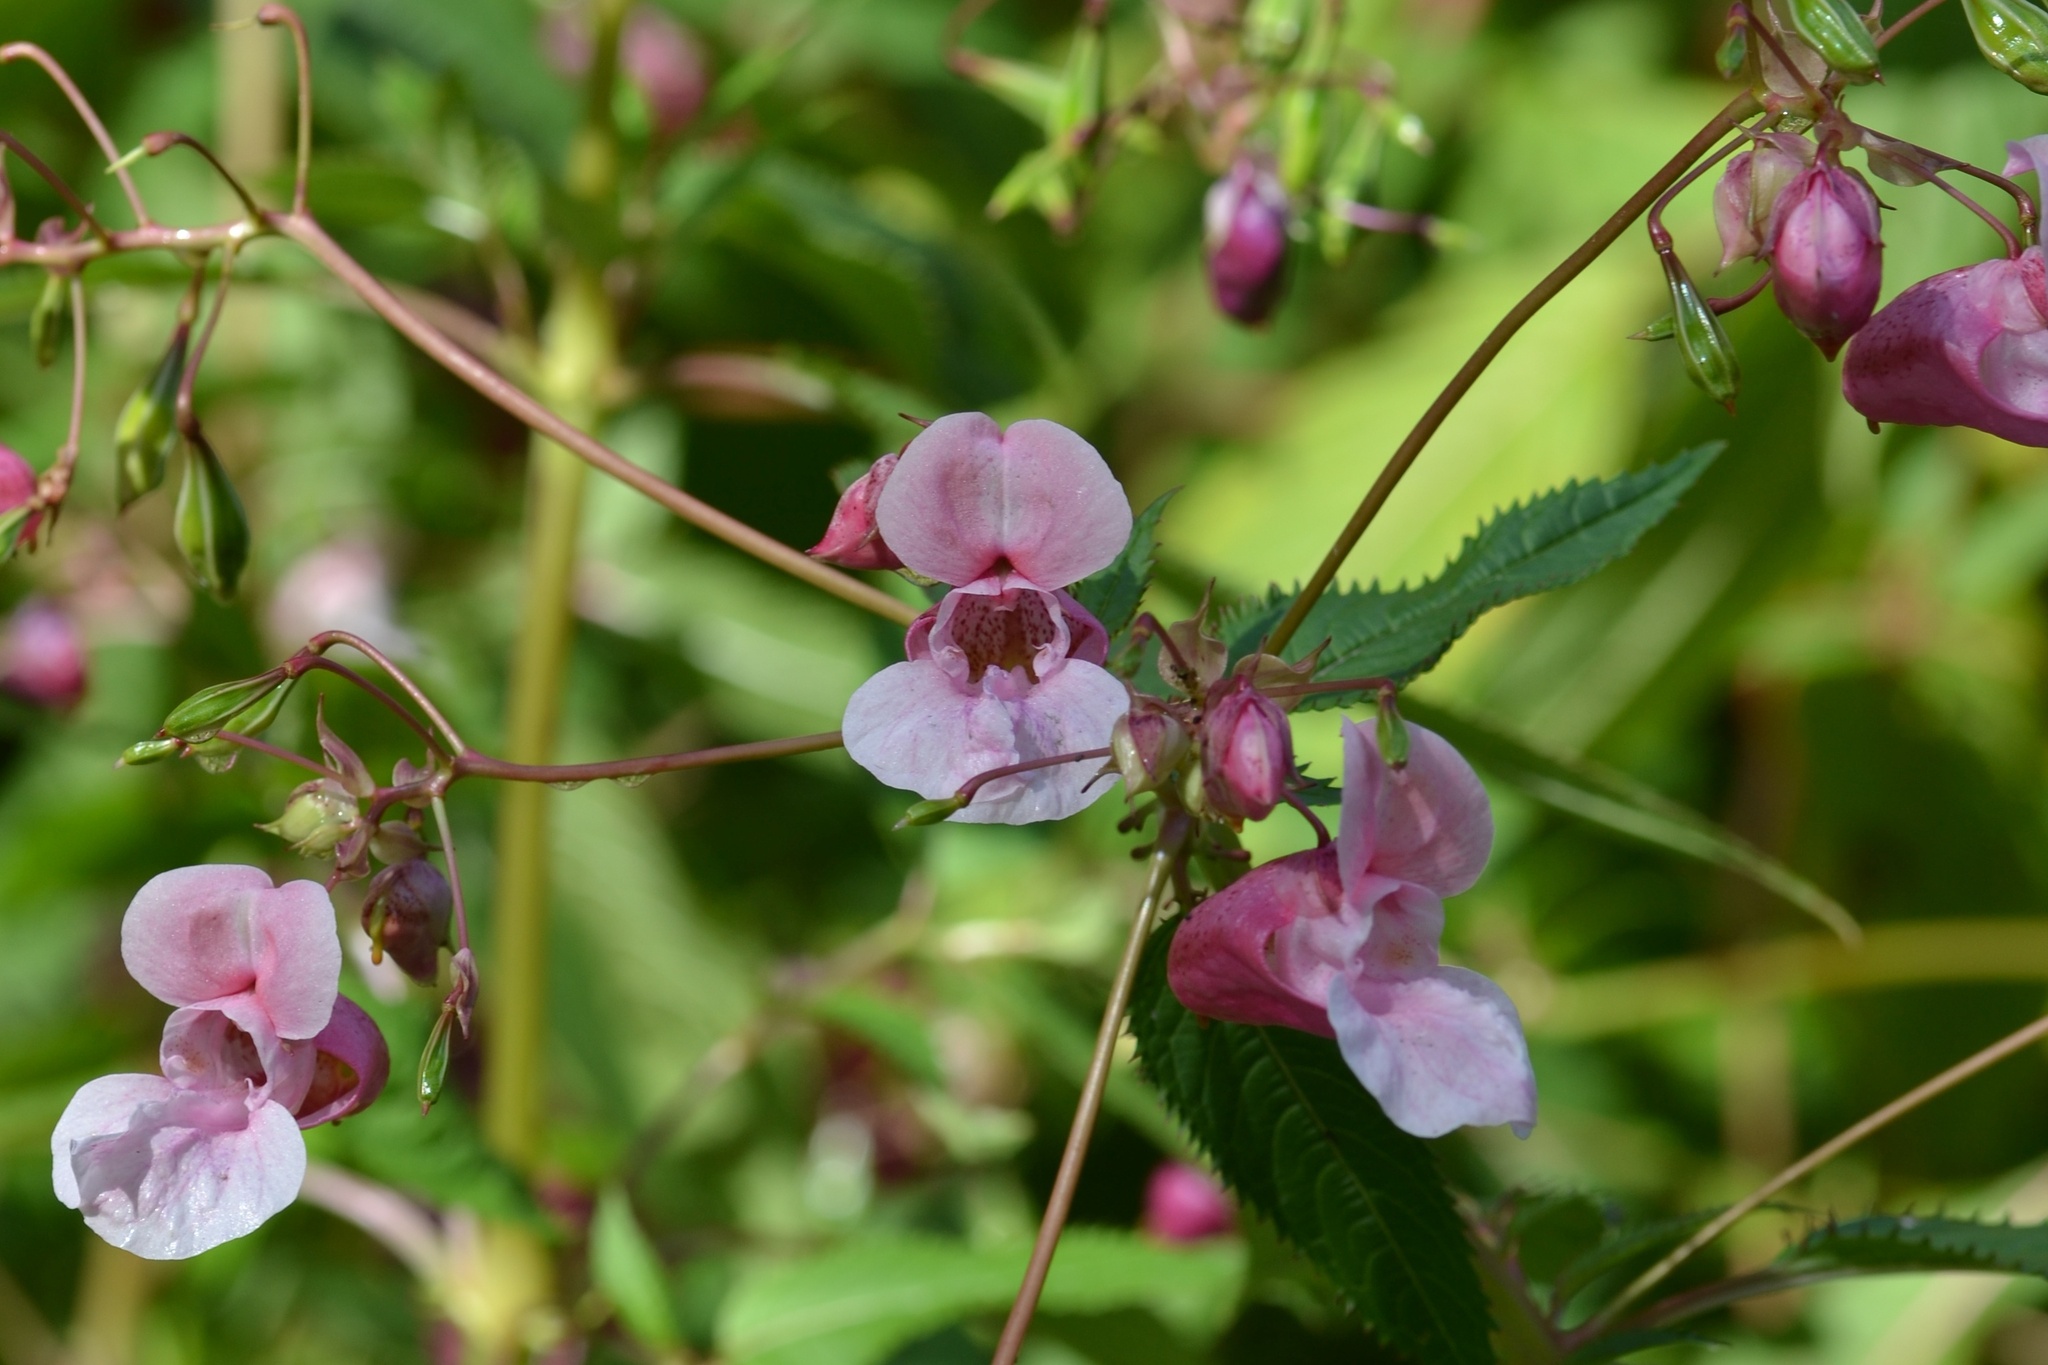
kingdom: Plantae
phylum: Tracheophyta
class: Magnoliopsida
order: Ericales
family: Balsaminaceae
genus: Impatiens
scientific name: Impatiens glandulifera
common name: Himalayan balsam
